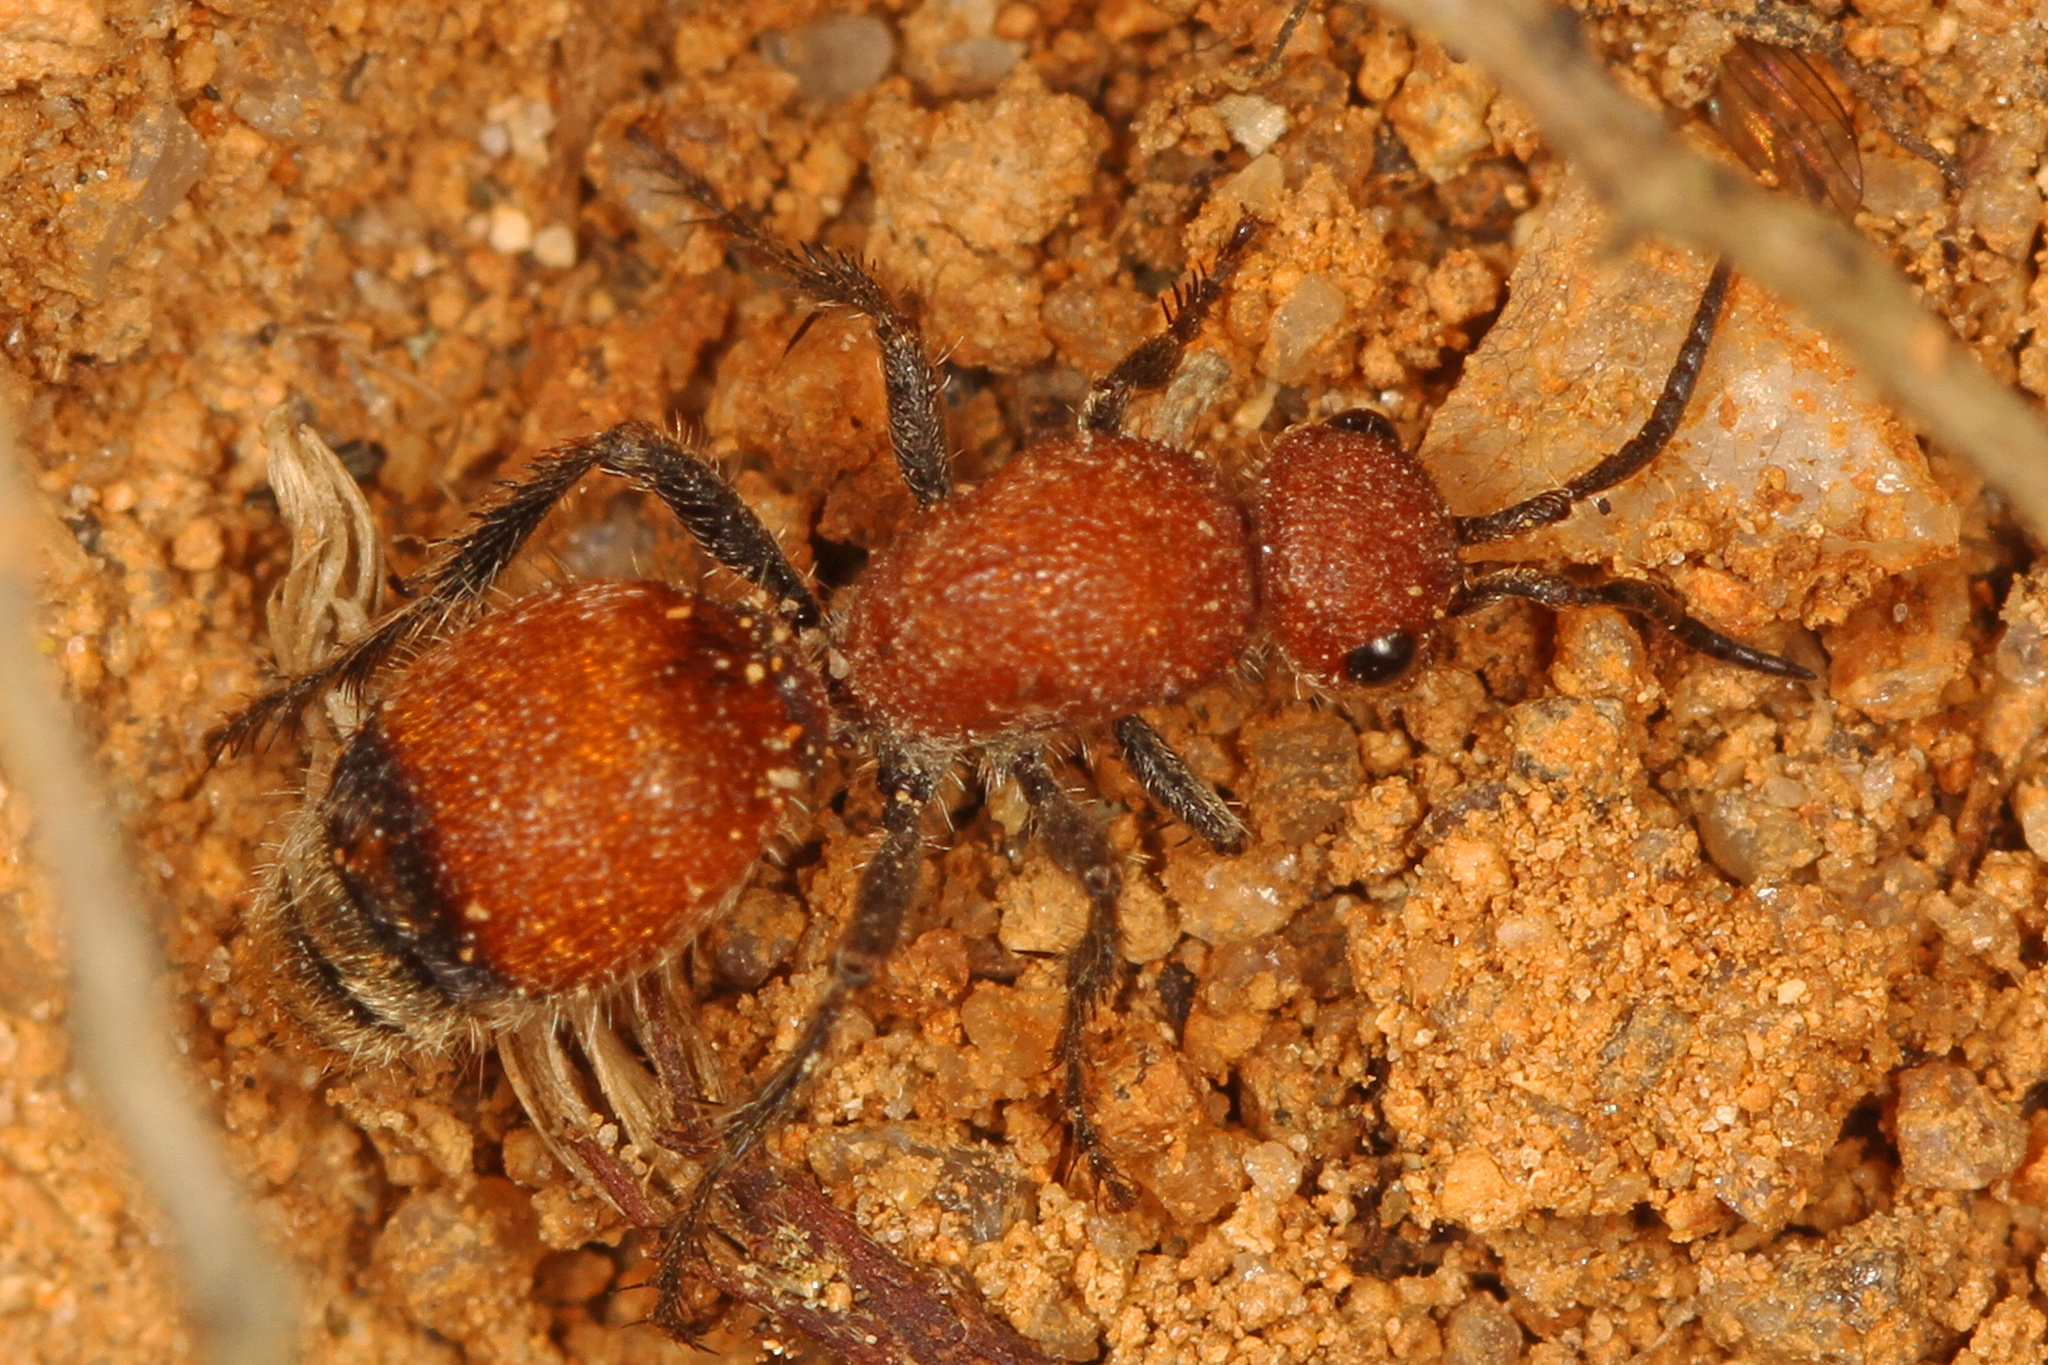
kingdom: Animalia
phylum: Arthropoda
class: Insecta
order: Hymenoptera
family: Mutillidae
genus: Dasymutilla
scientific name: Dasymutilla
